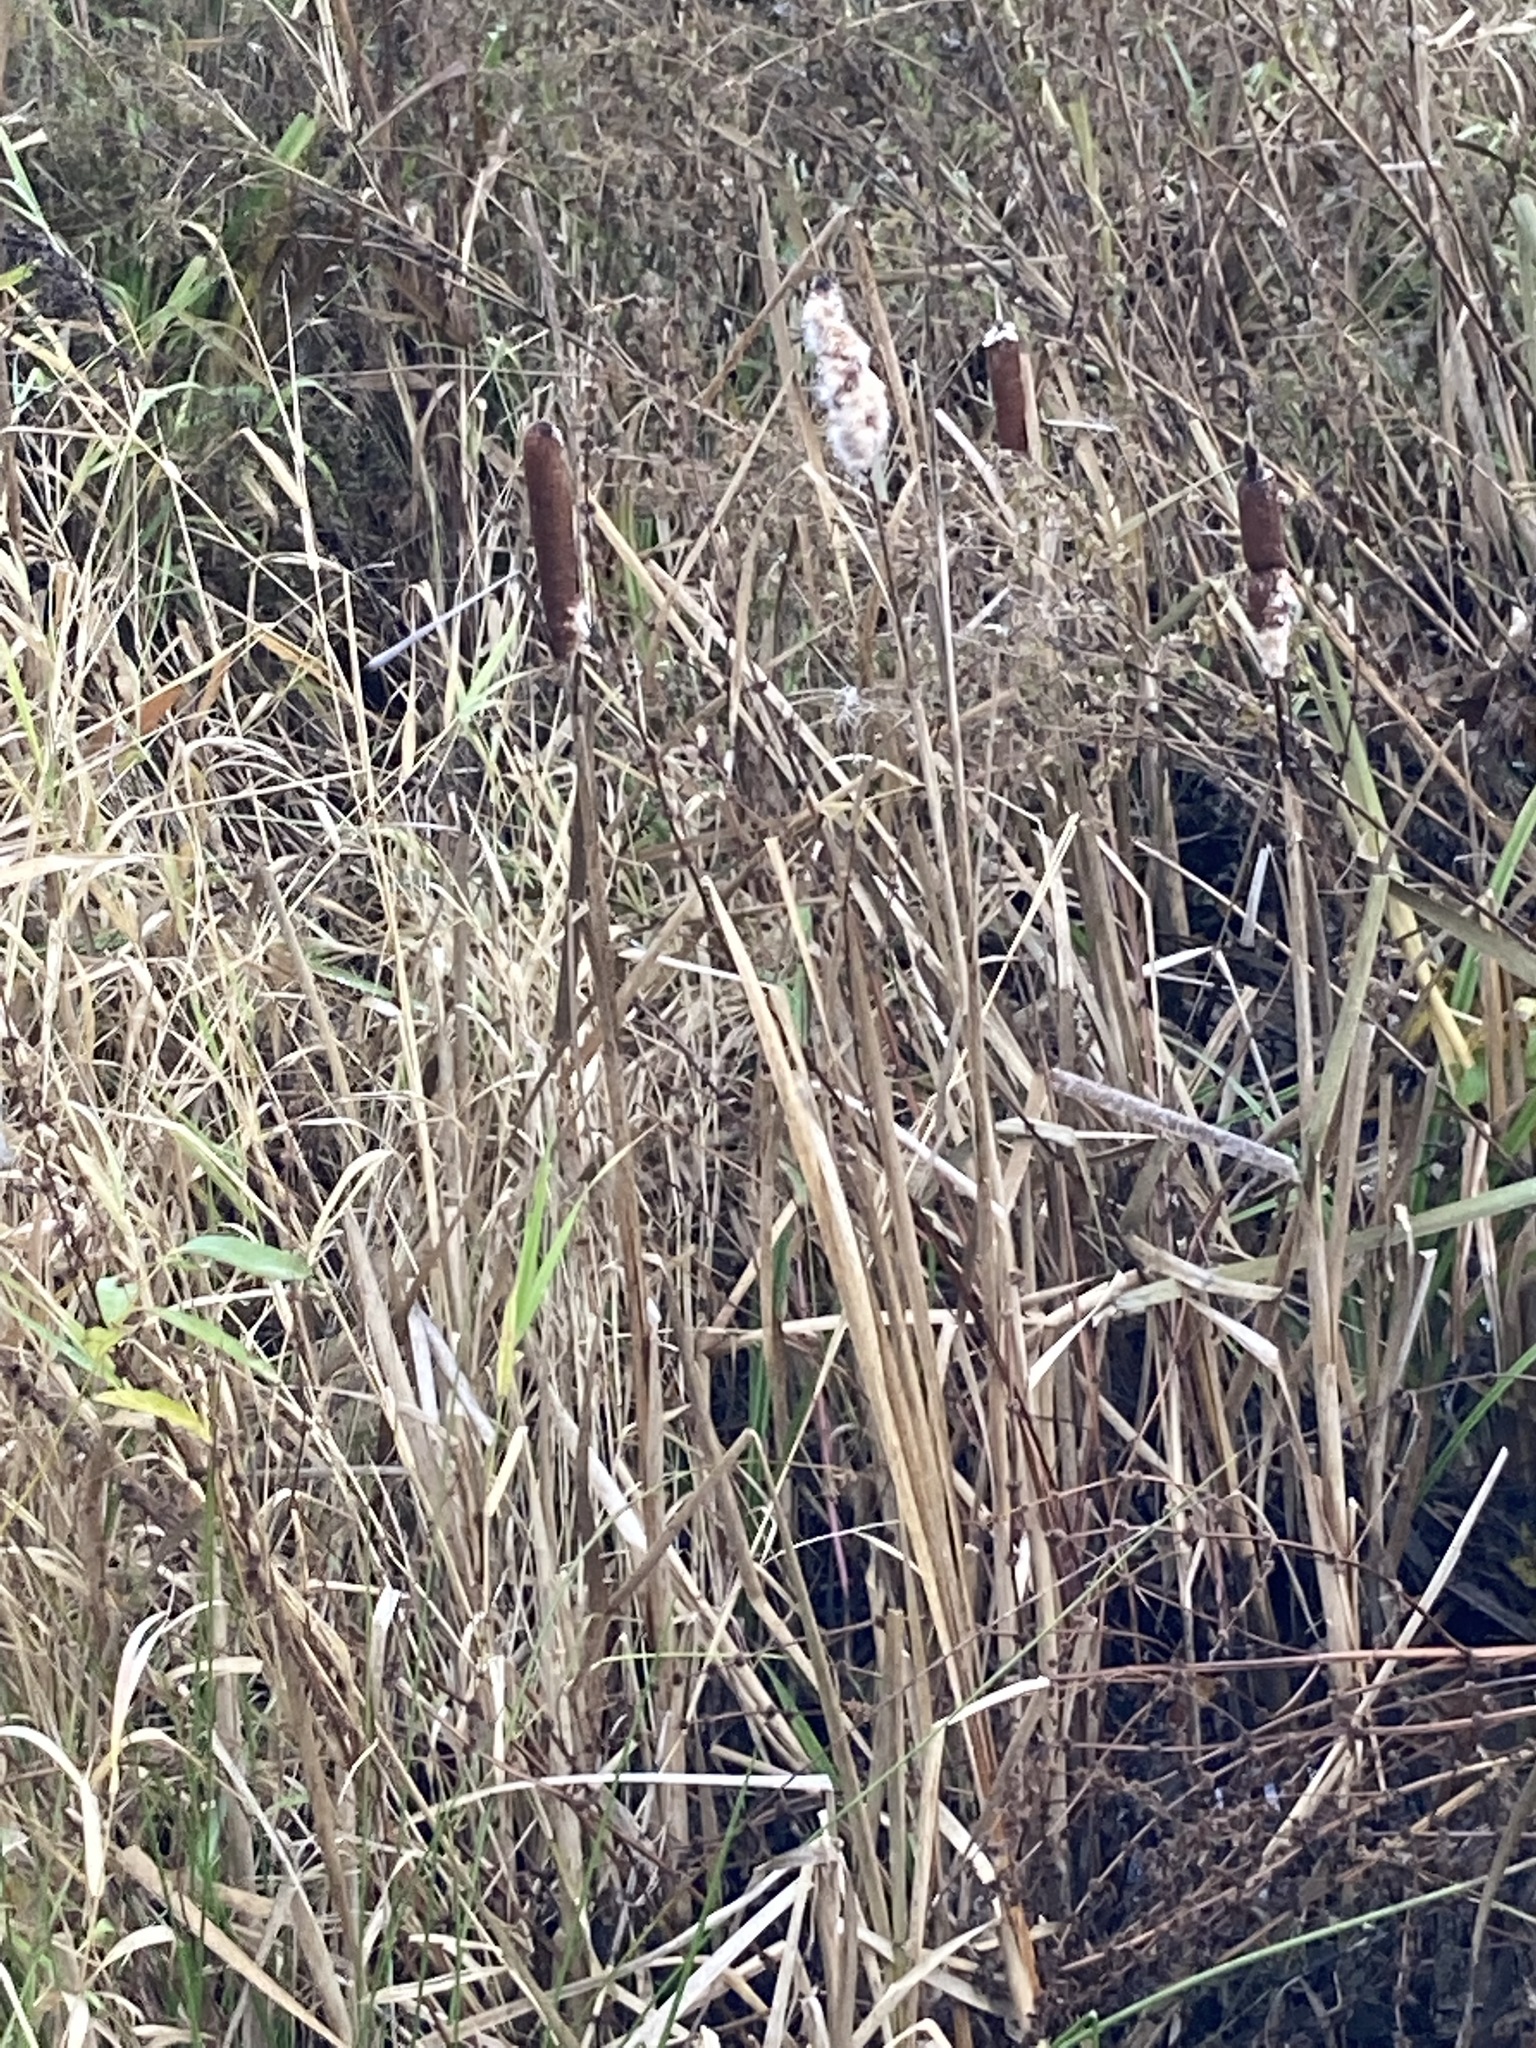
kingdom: Plantae
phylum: Tracheophyta
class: Liliopsida
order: Poales
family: Typhaceae
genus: Typha
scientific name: Typha latifolia
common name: Broadleaf cattail
